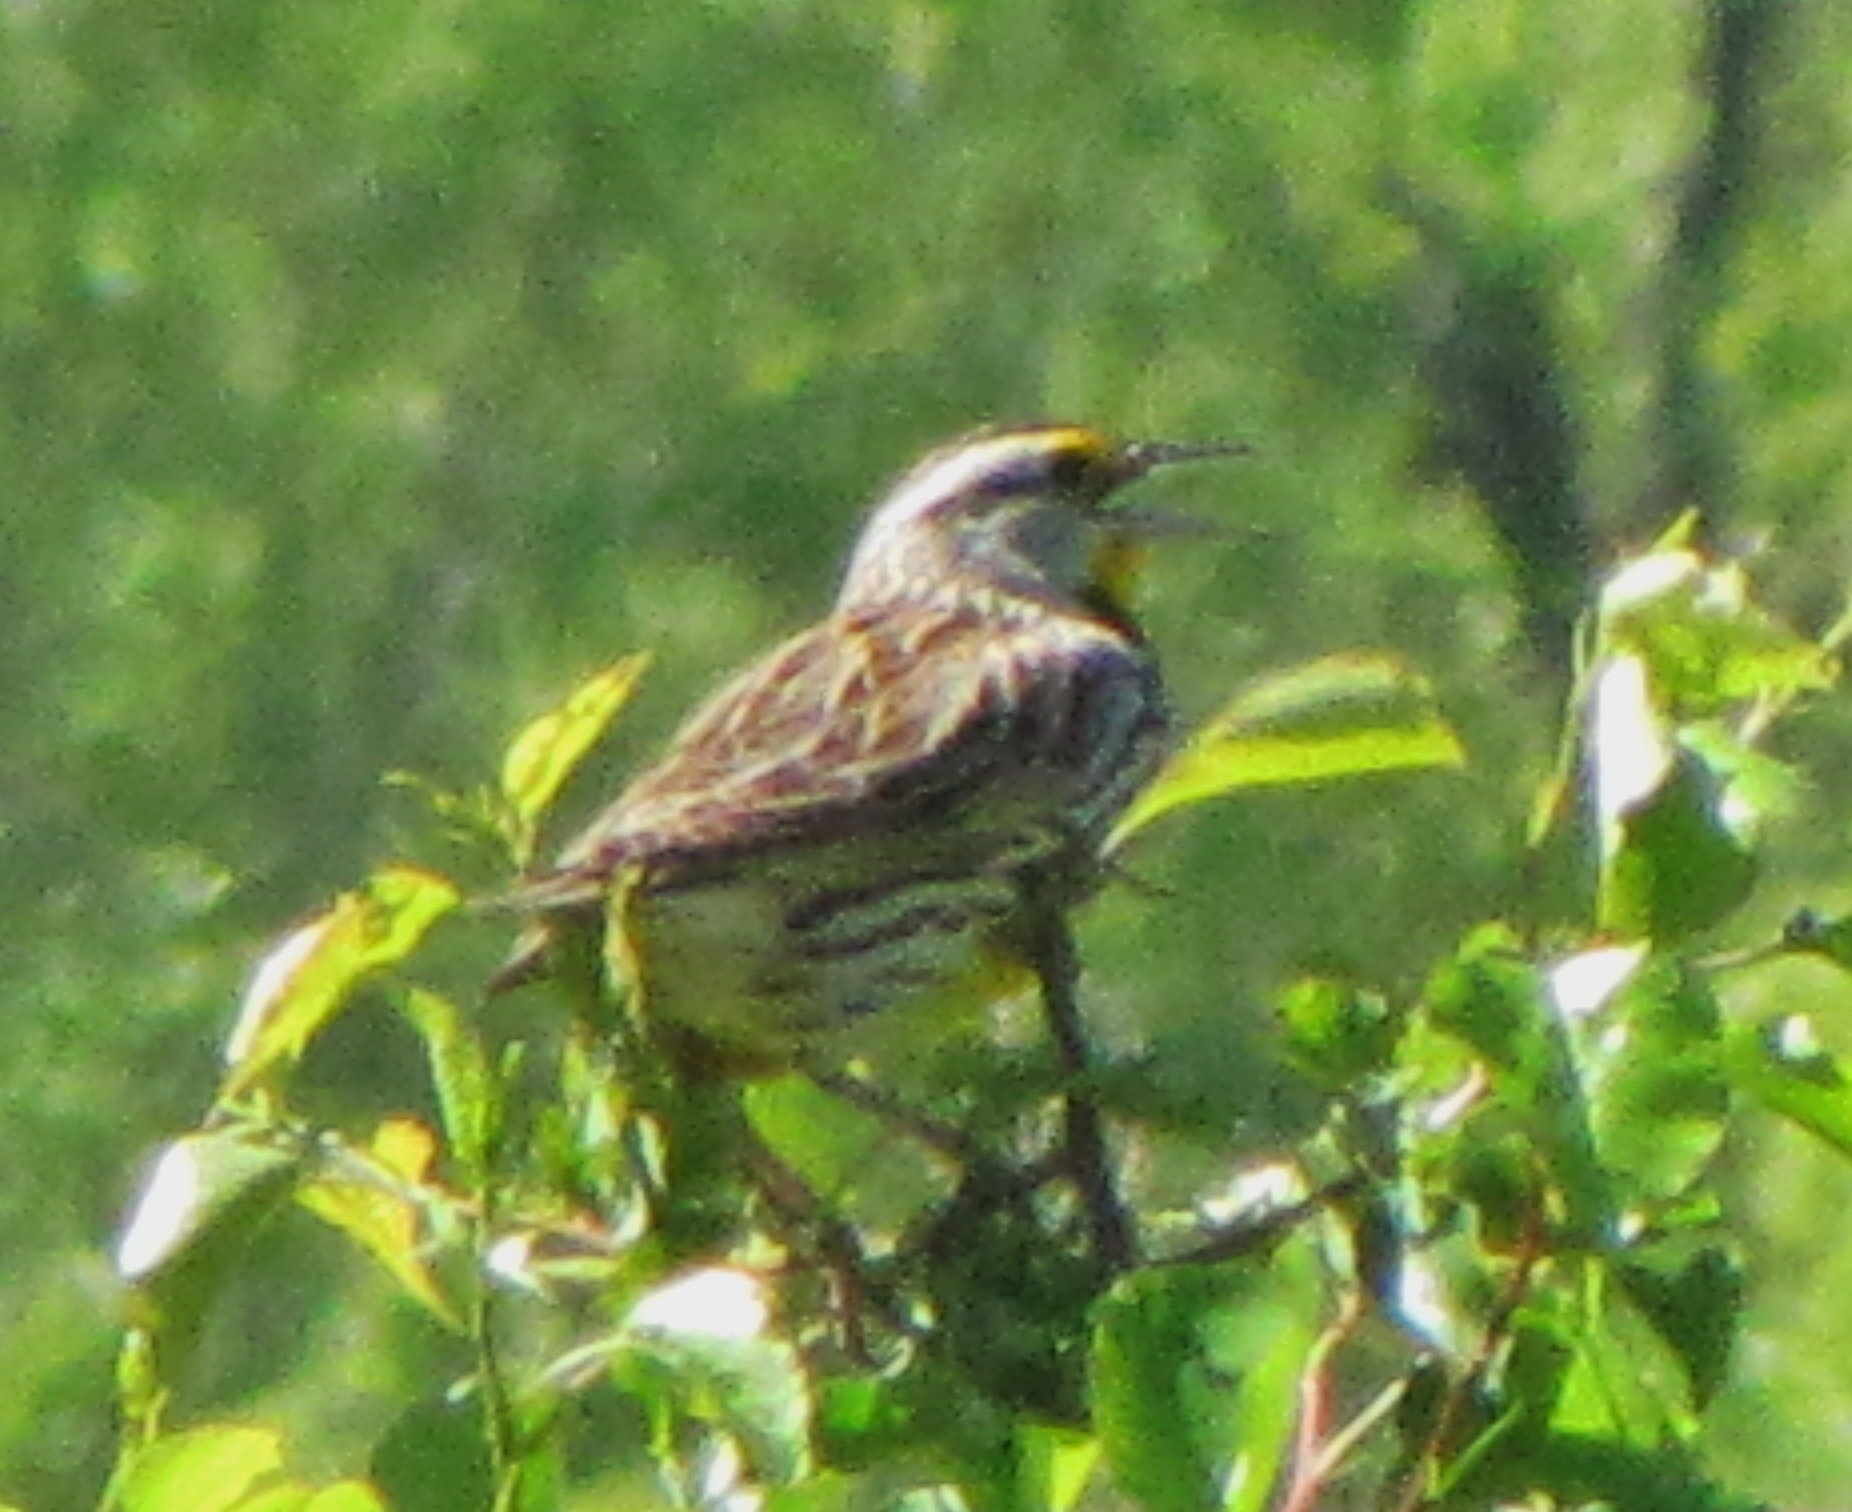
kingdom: Animalia
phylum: Chordata
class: Aves
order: Passeriformes
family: Icteridae
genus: Sturnella
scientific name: Sturnella magna
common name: Eastern meadowlark
